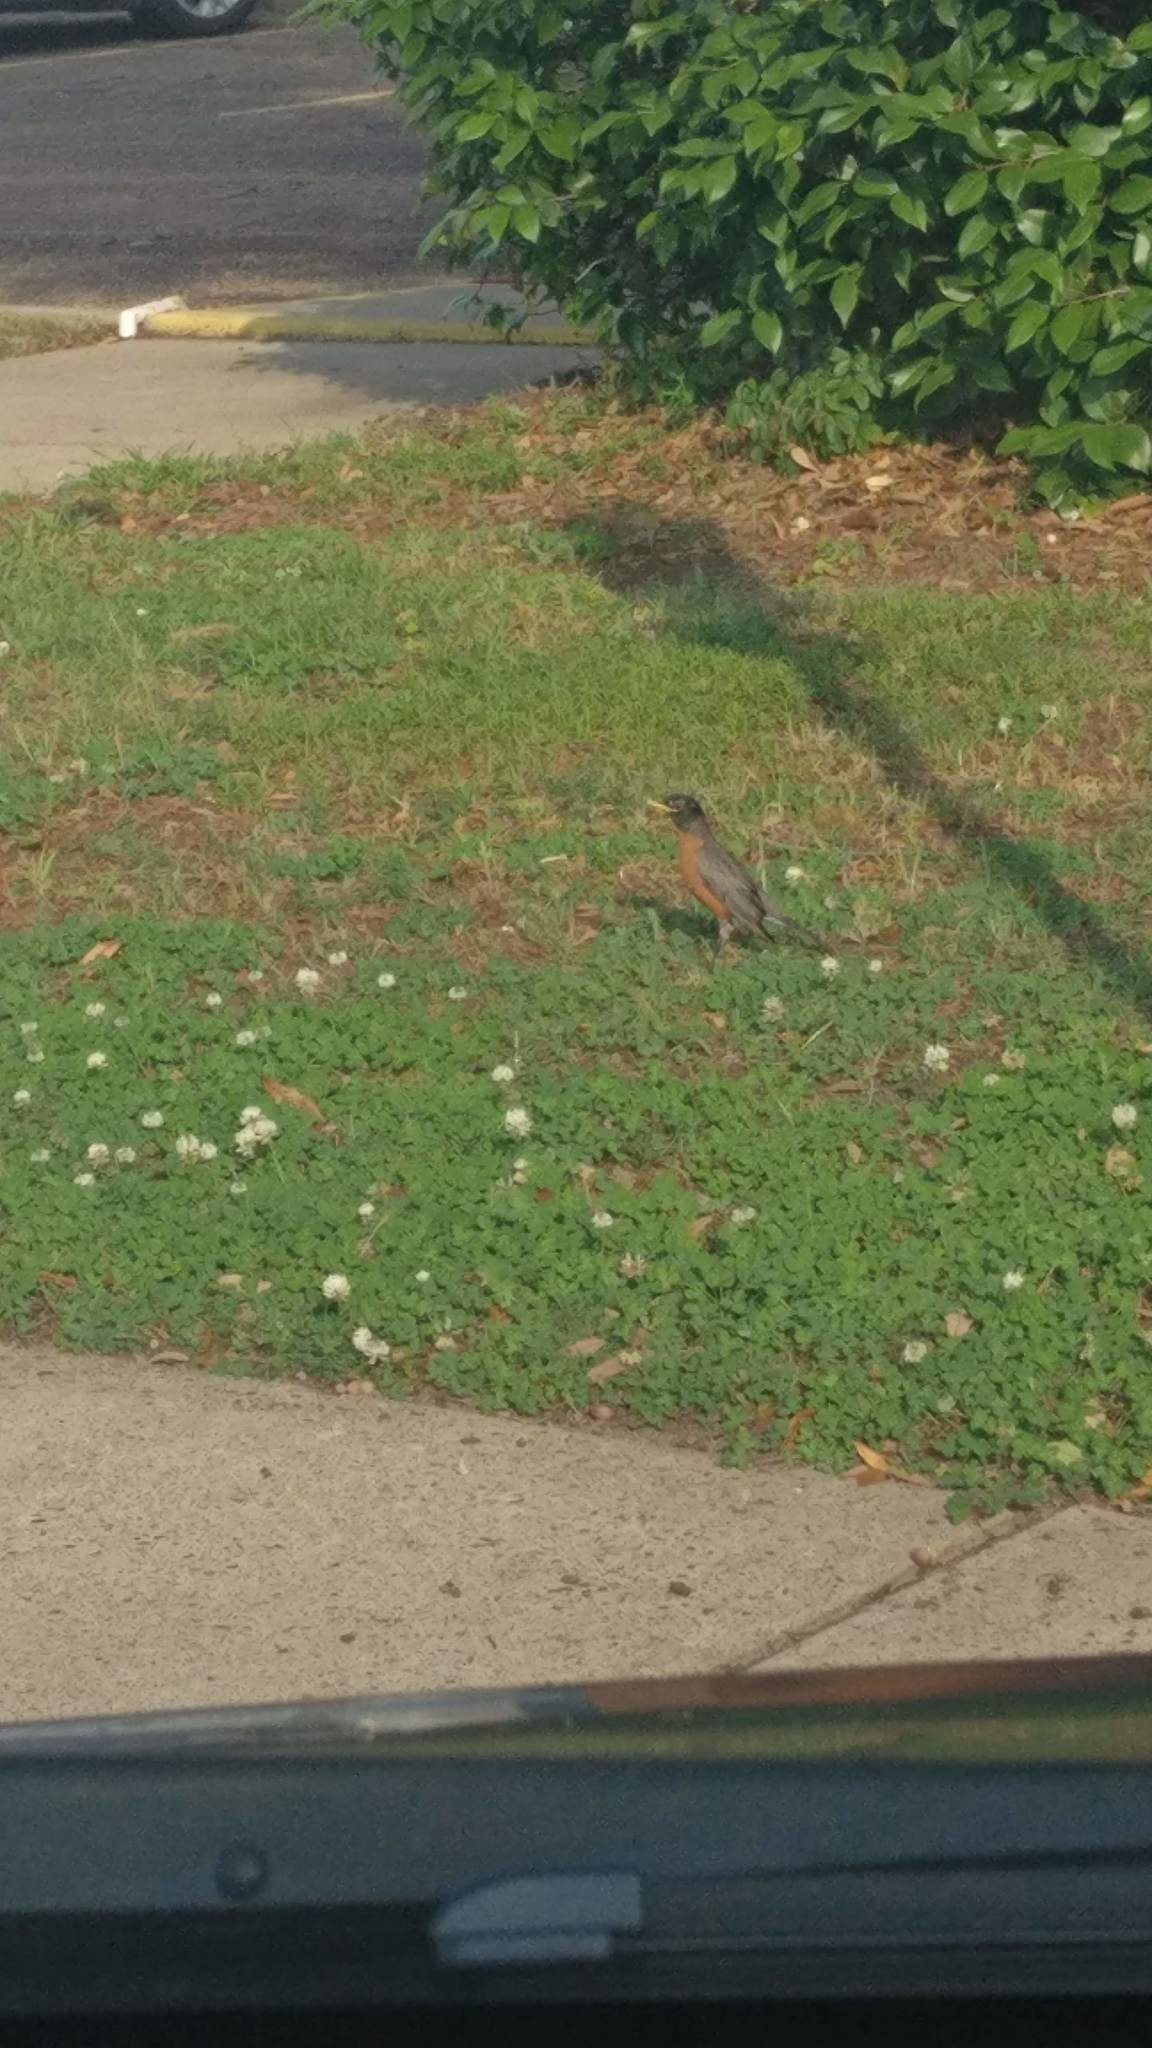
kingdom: Animalia
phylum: Chordata
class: Aves
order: Passeriformes
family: Turdidae
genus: Turdus
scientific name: Turdus migratorius
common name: American robin
